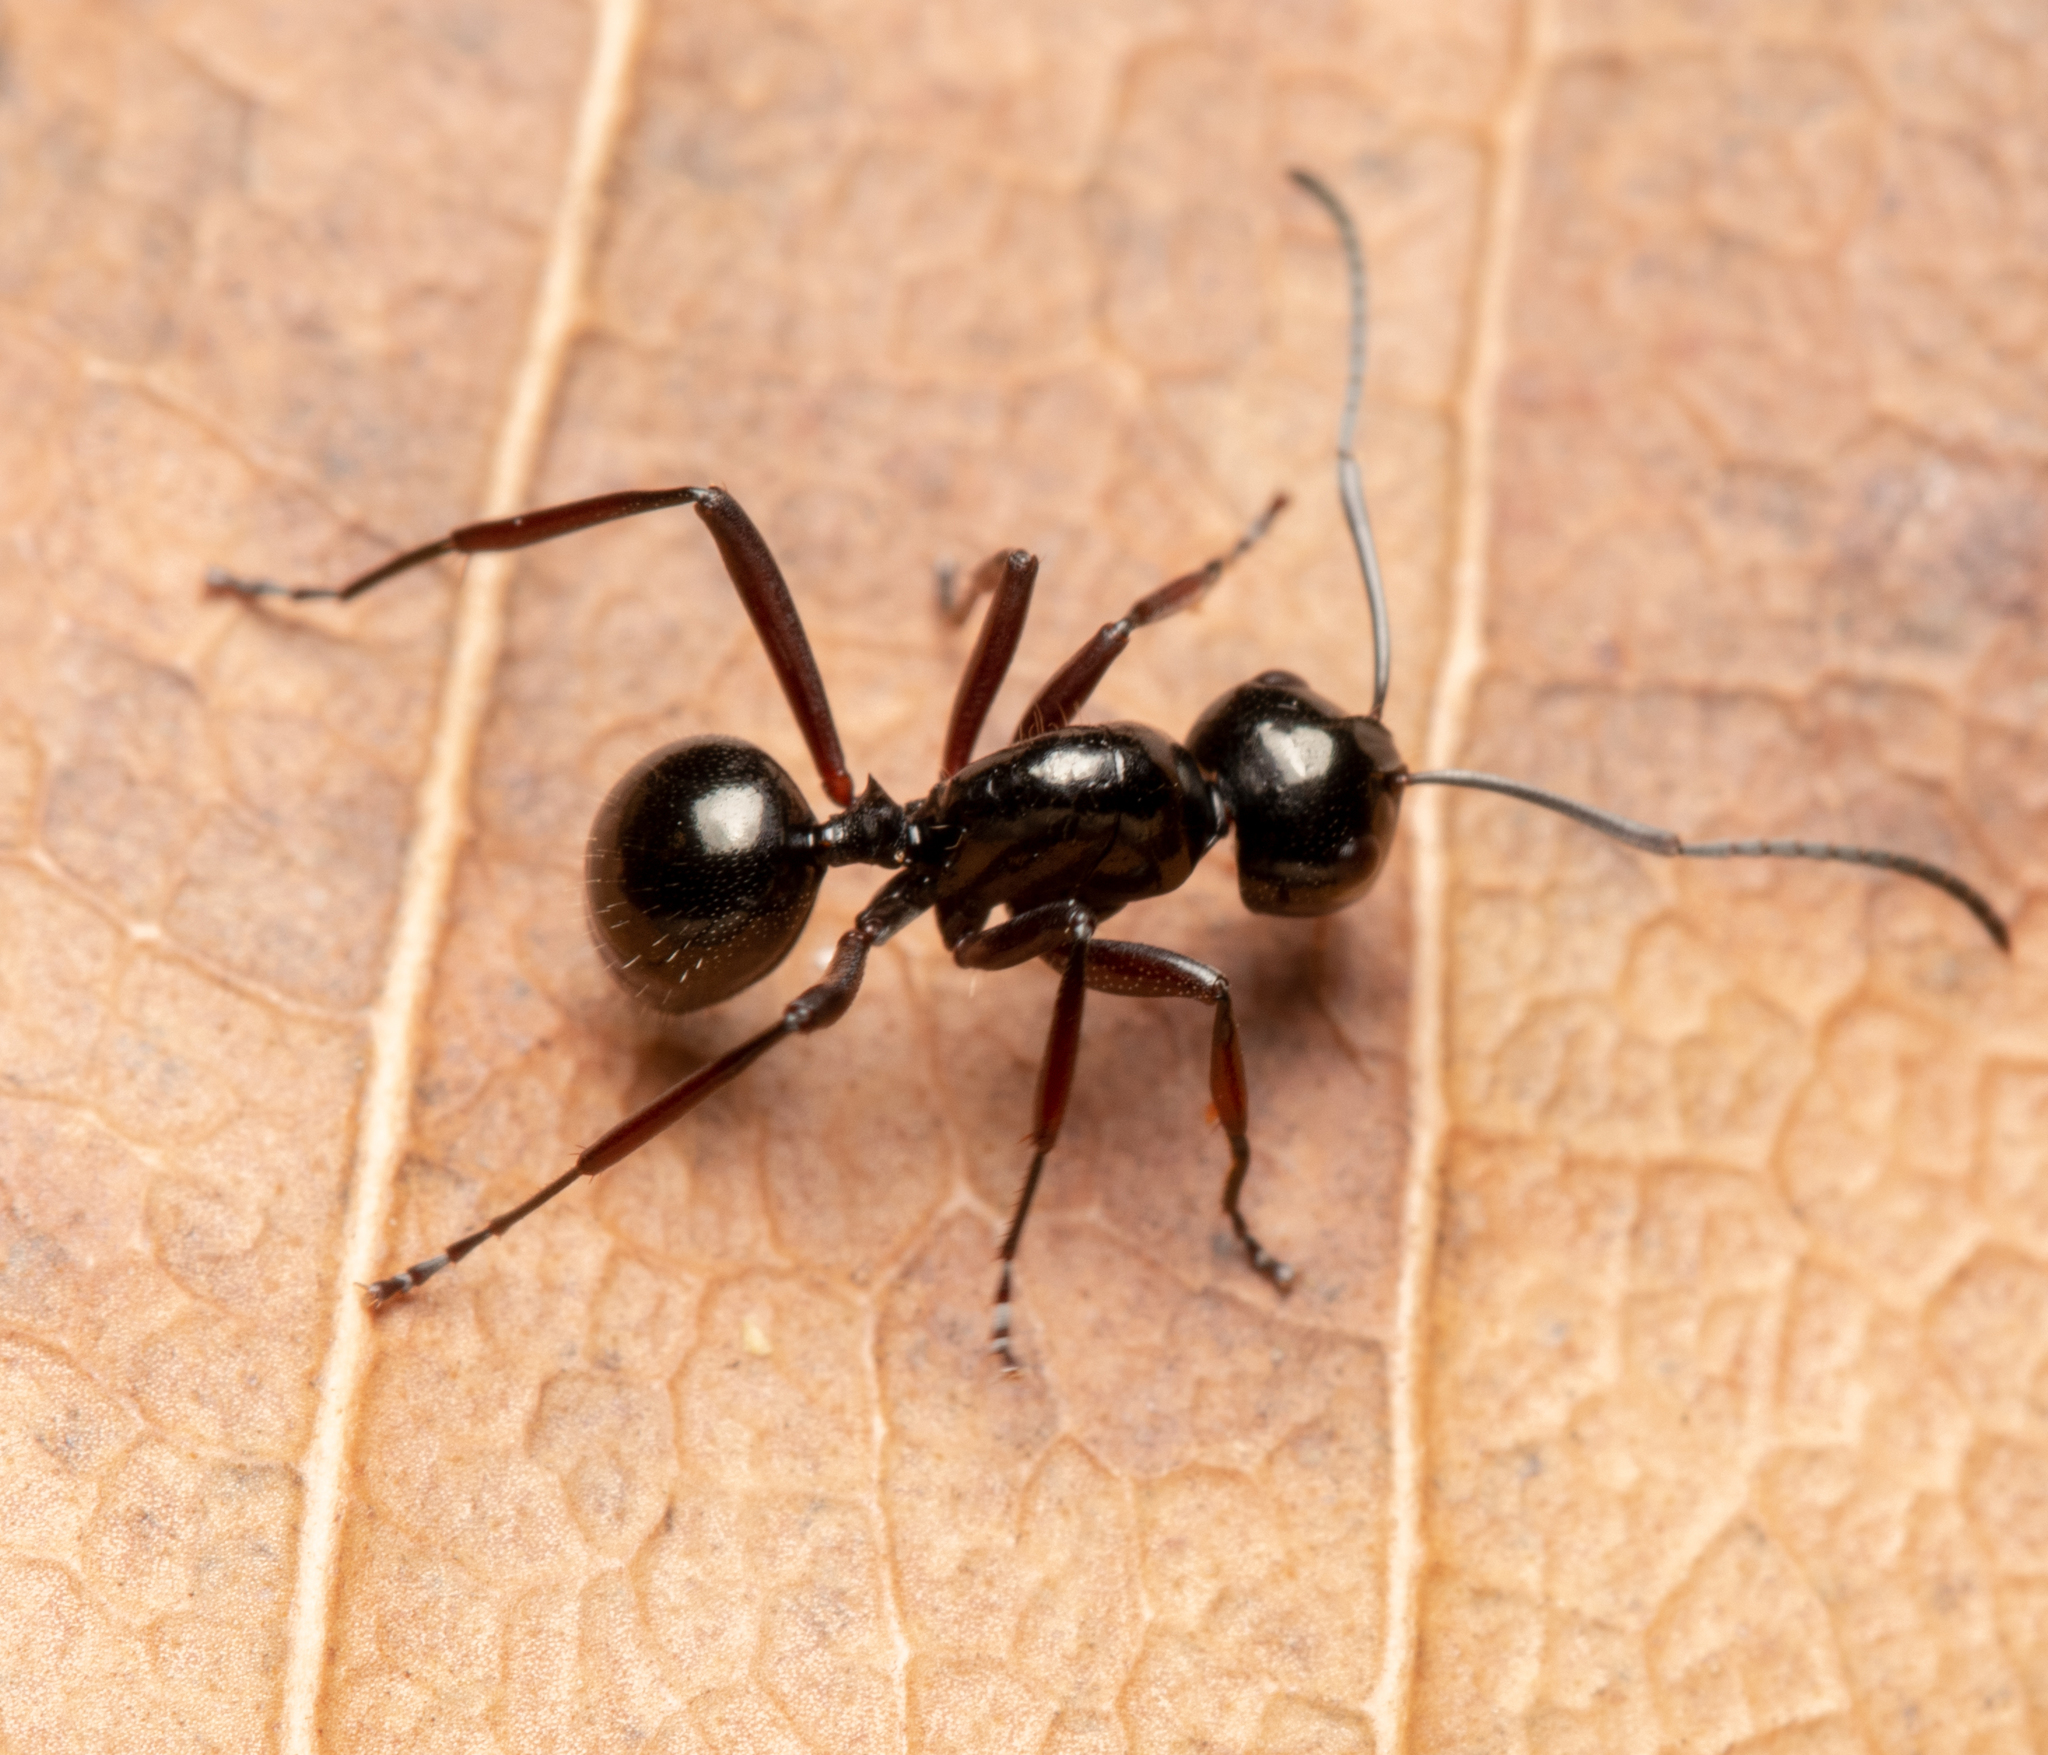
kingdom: Animalia
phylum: Arthropoda
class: Insecta
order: Hymenoptera
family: Formicidae
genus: Polyrhachis
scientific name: Polyrhachis pilosa
